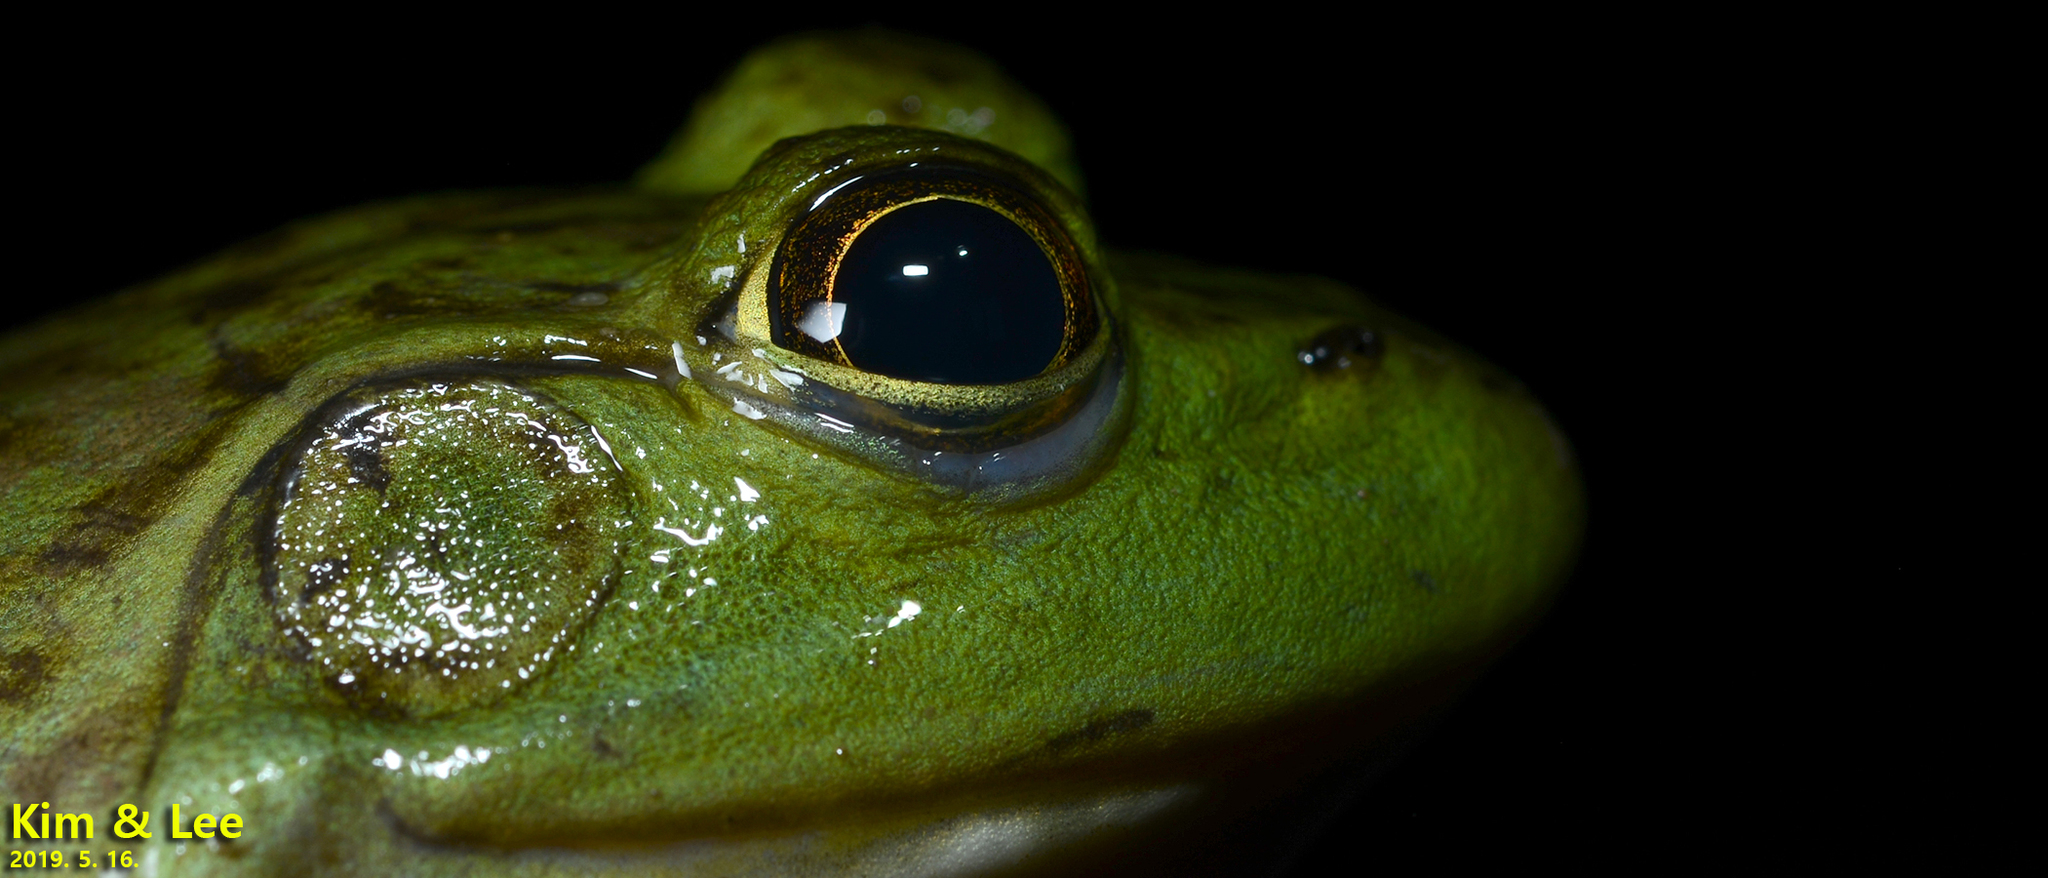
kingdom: Animalia
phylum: Chordata
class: Amphibia
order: Anura
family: Ranidae
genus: Lithobates
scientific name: Lithobates catesbeianus
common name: American bullfrog
